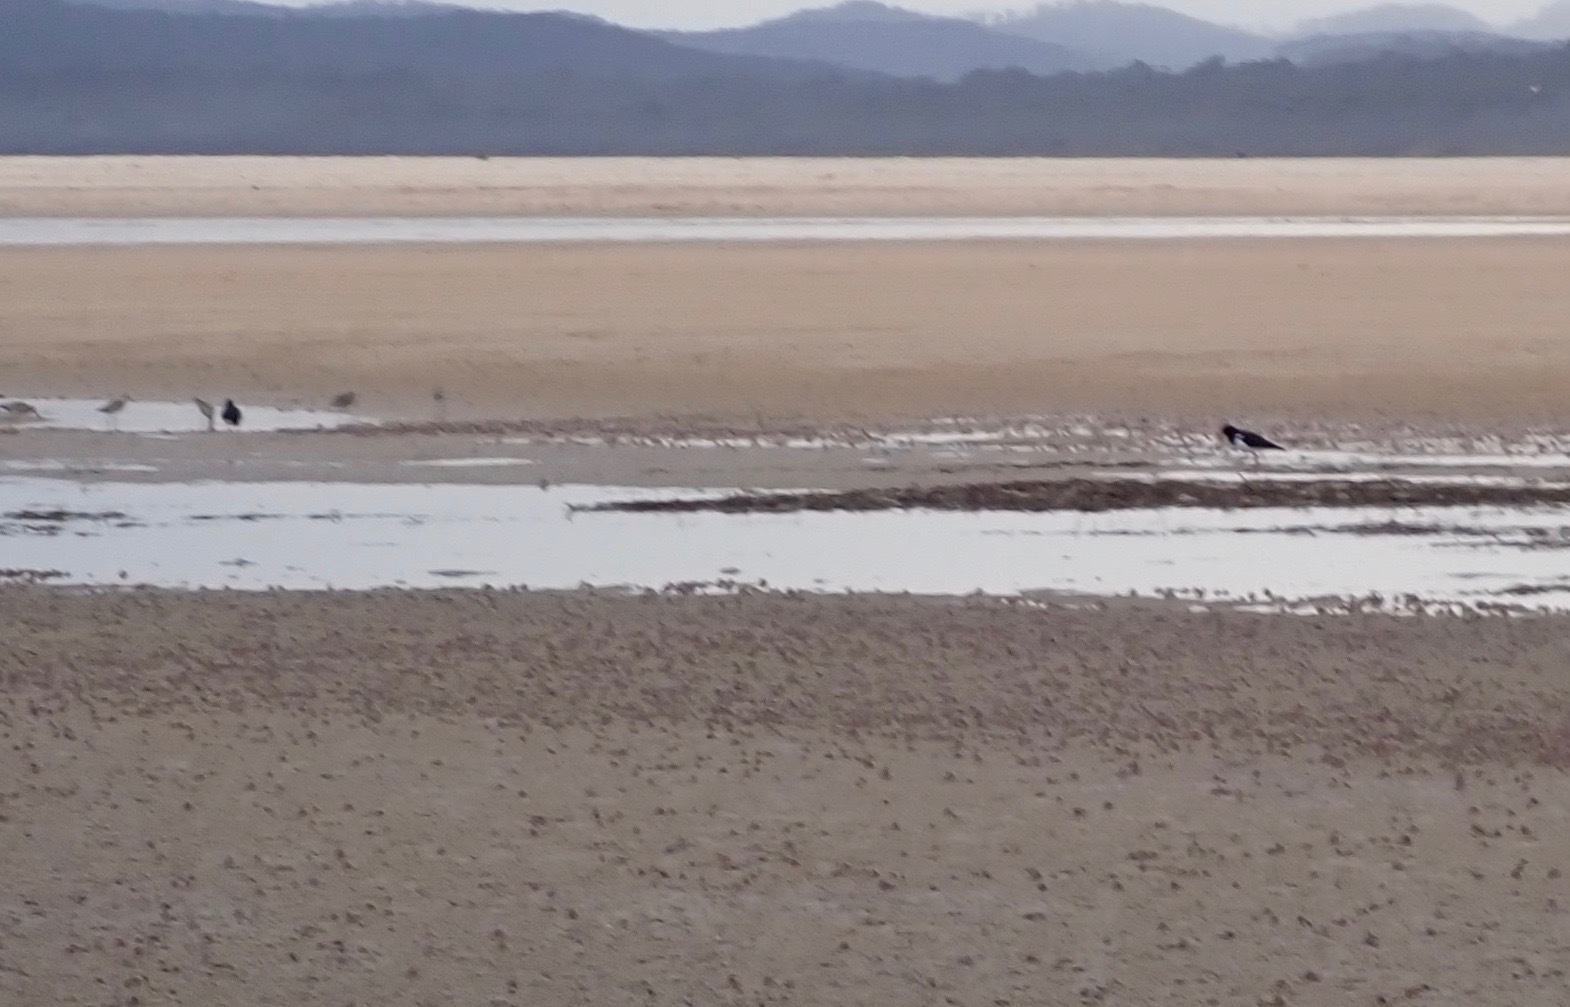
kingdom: Animalia
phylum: Chordata
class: Aves
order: Charadriiformes
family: Haematopodidae
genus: Haematopus
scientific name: Haematopus longirostris
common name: Pied oystercatcher
